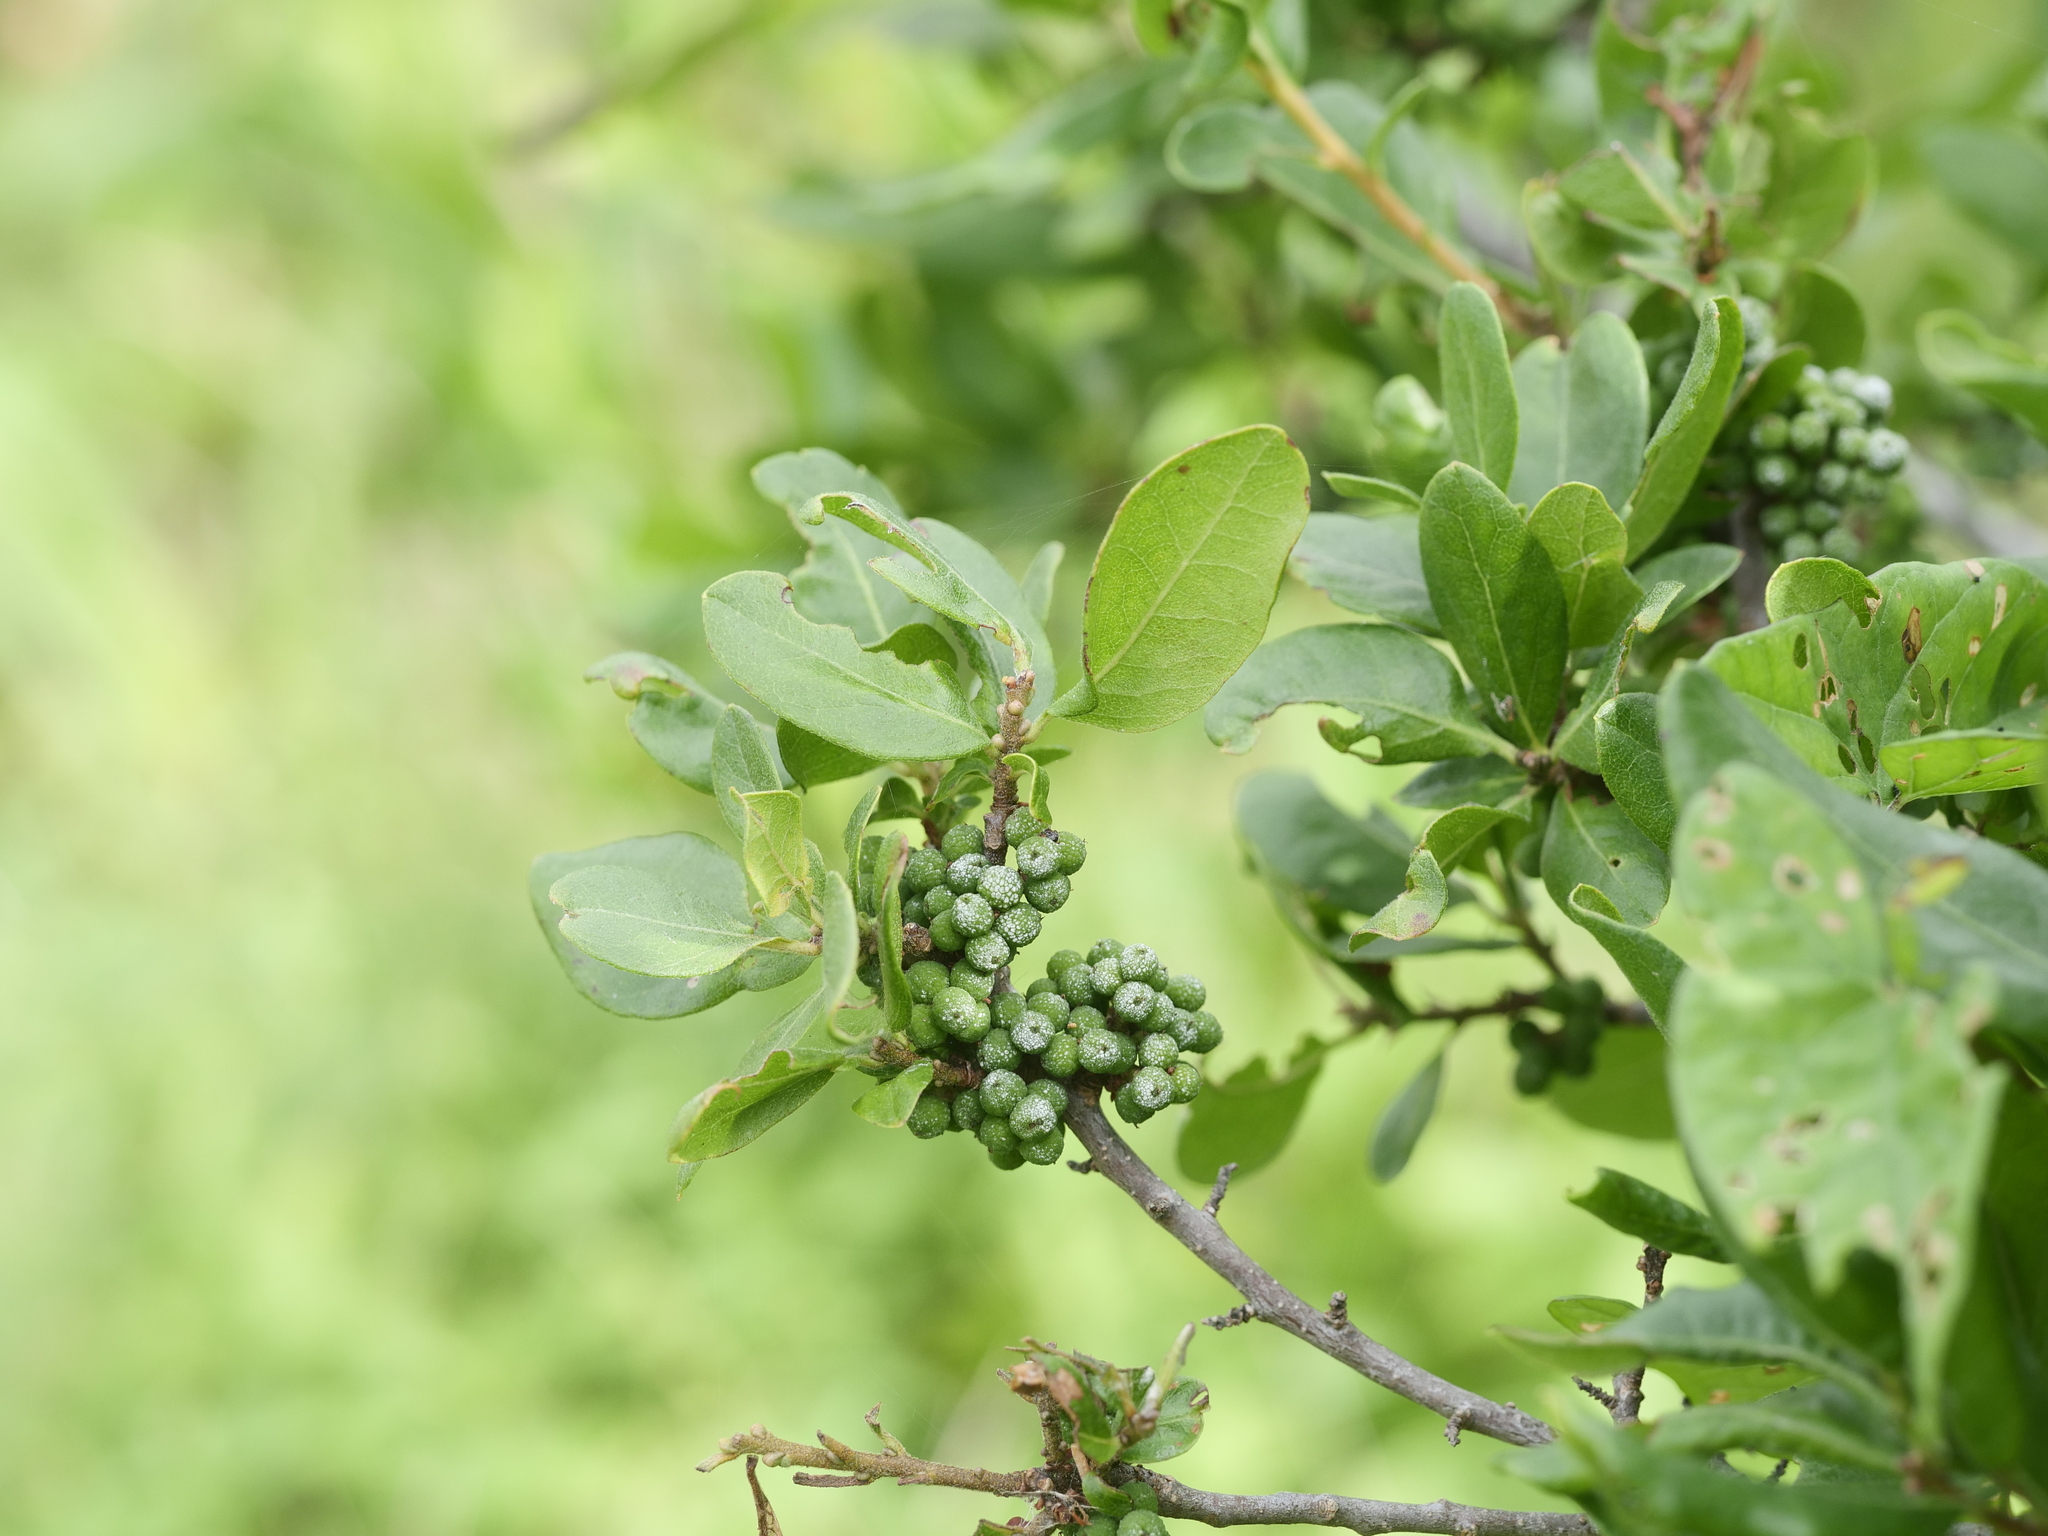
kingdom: Plantae
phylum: Tracheophyta
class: Magnoliopsida
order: Fagales
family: Myricaceae
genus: Morella
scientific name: Morella pensylvanica
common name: Northern bayberry
